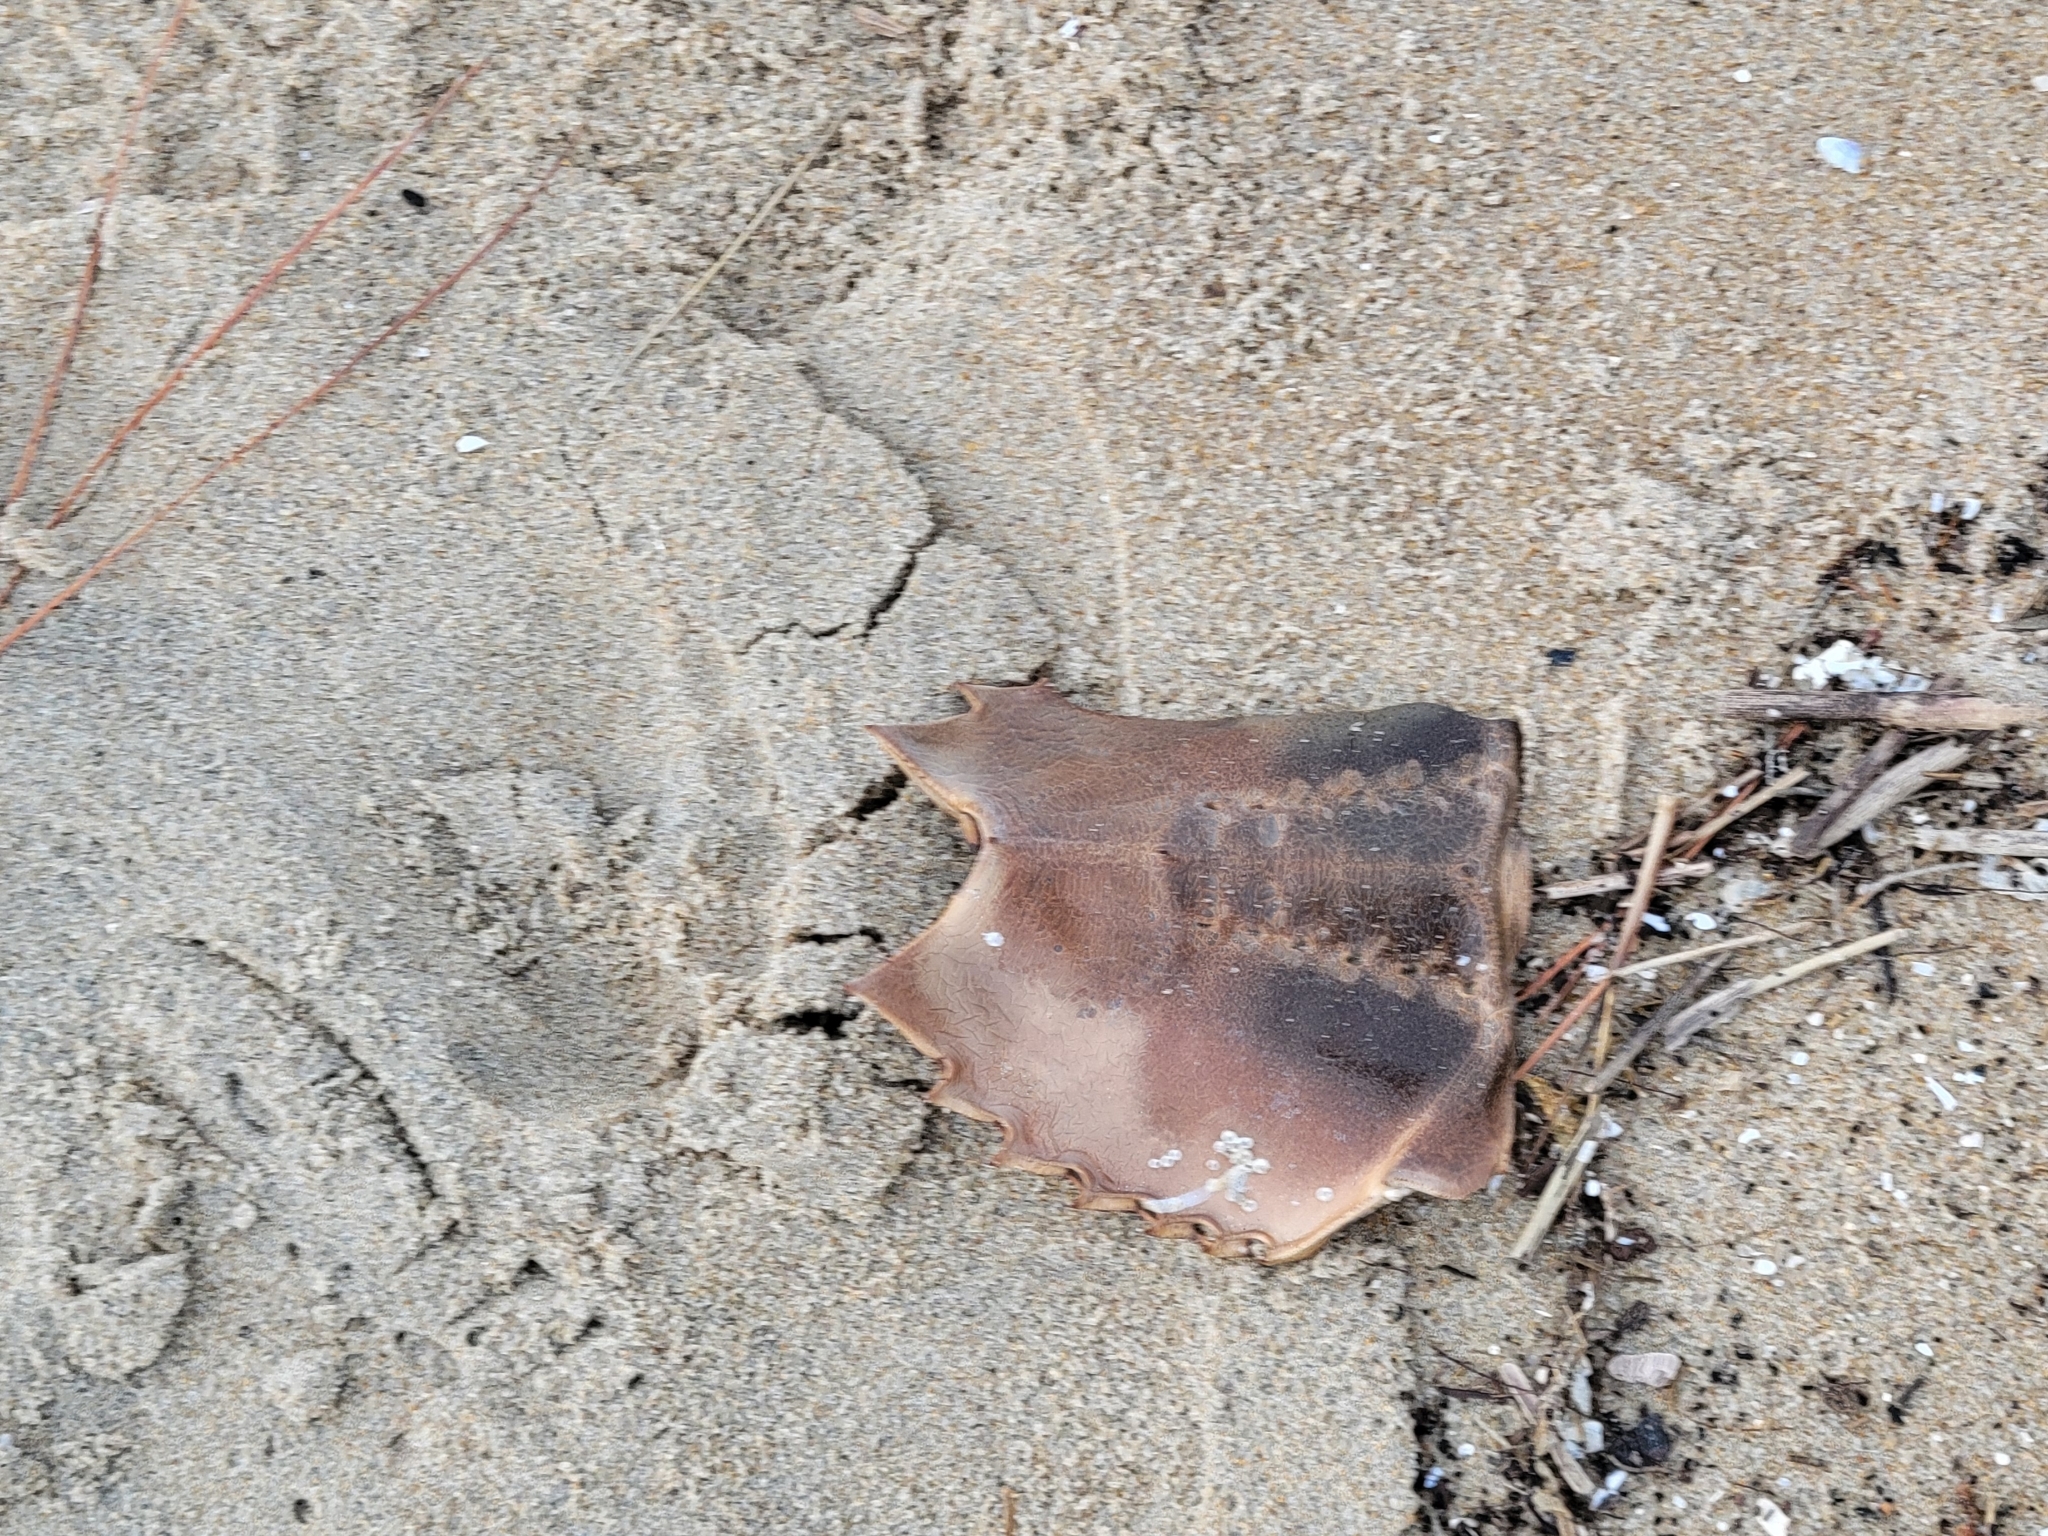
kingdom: Animalia
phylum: Arthropoda
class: Merostomata
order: Xiphosurida
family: Limulidae
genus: Limulus
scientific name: Limulus polyphemus
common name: Horseshoe crab
